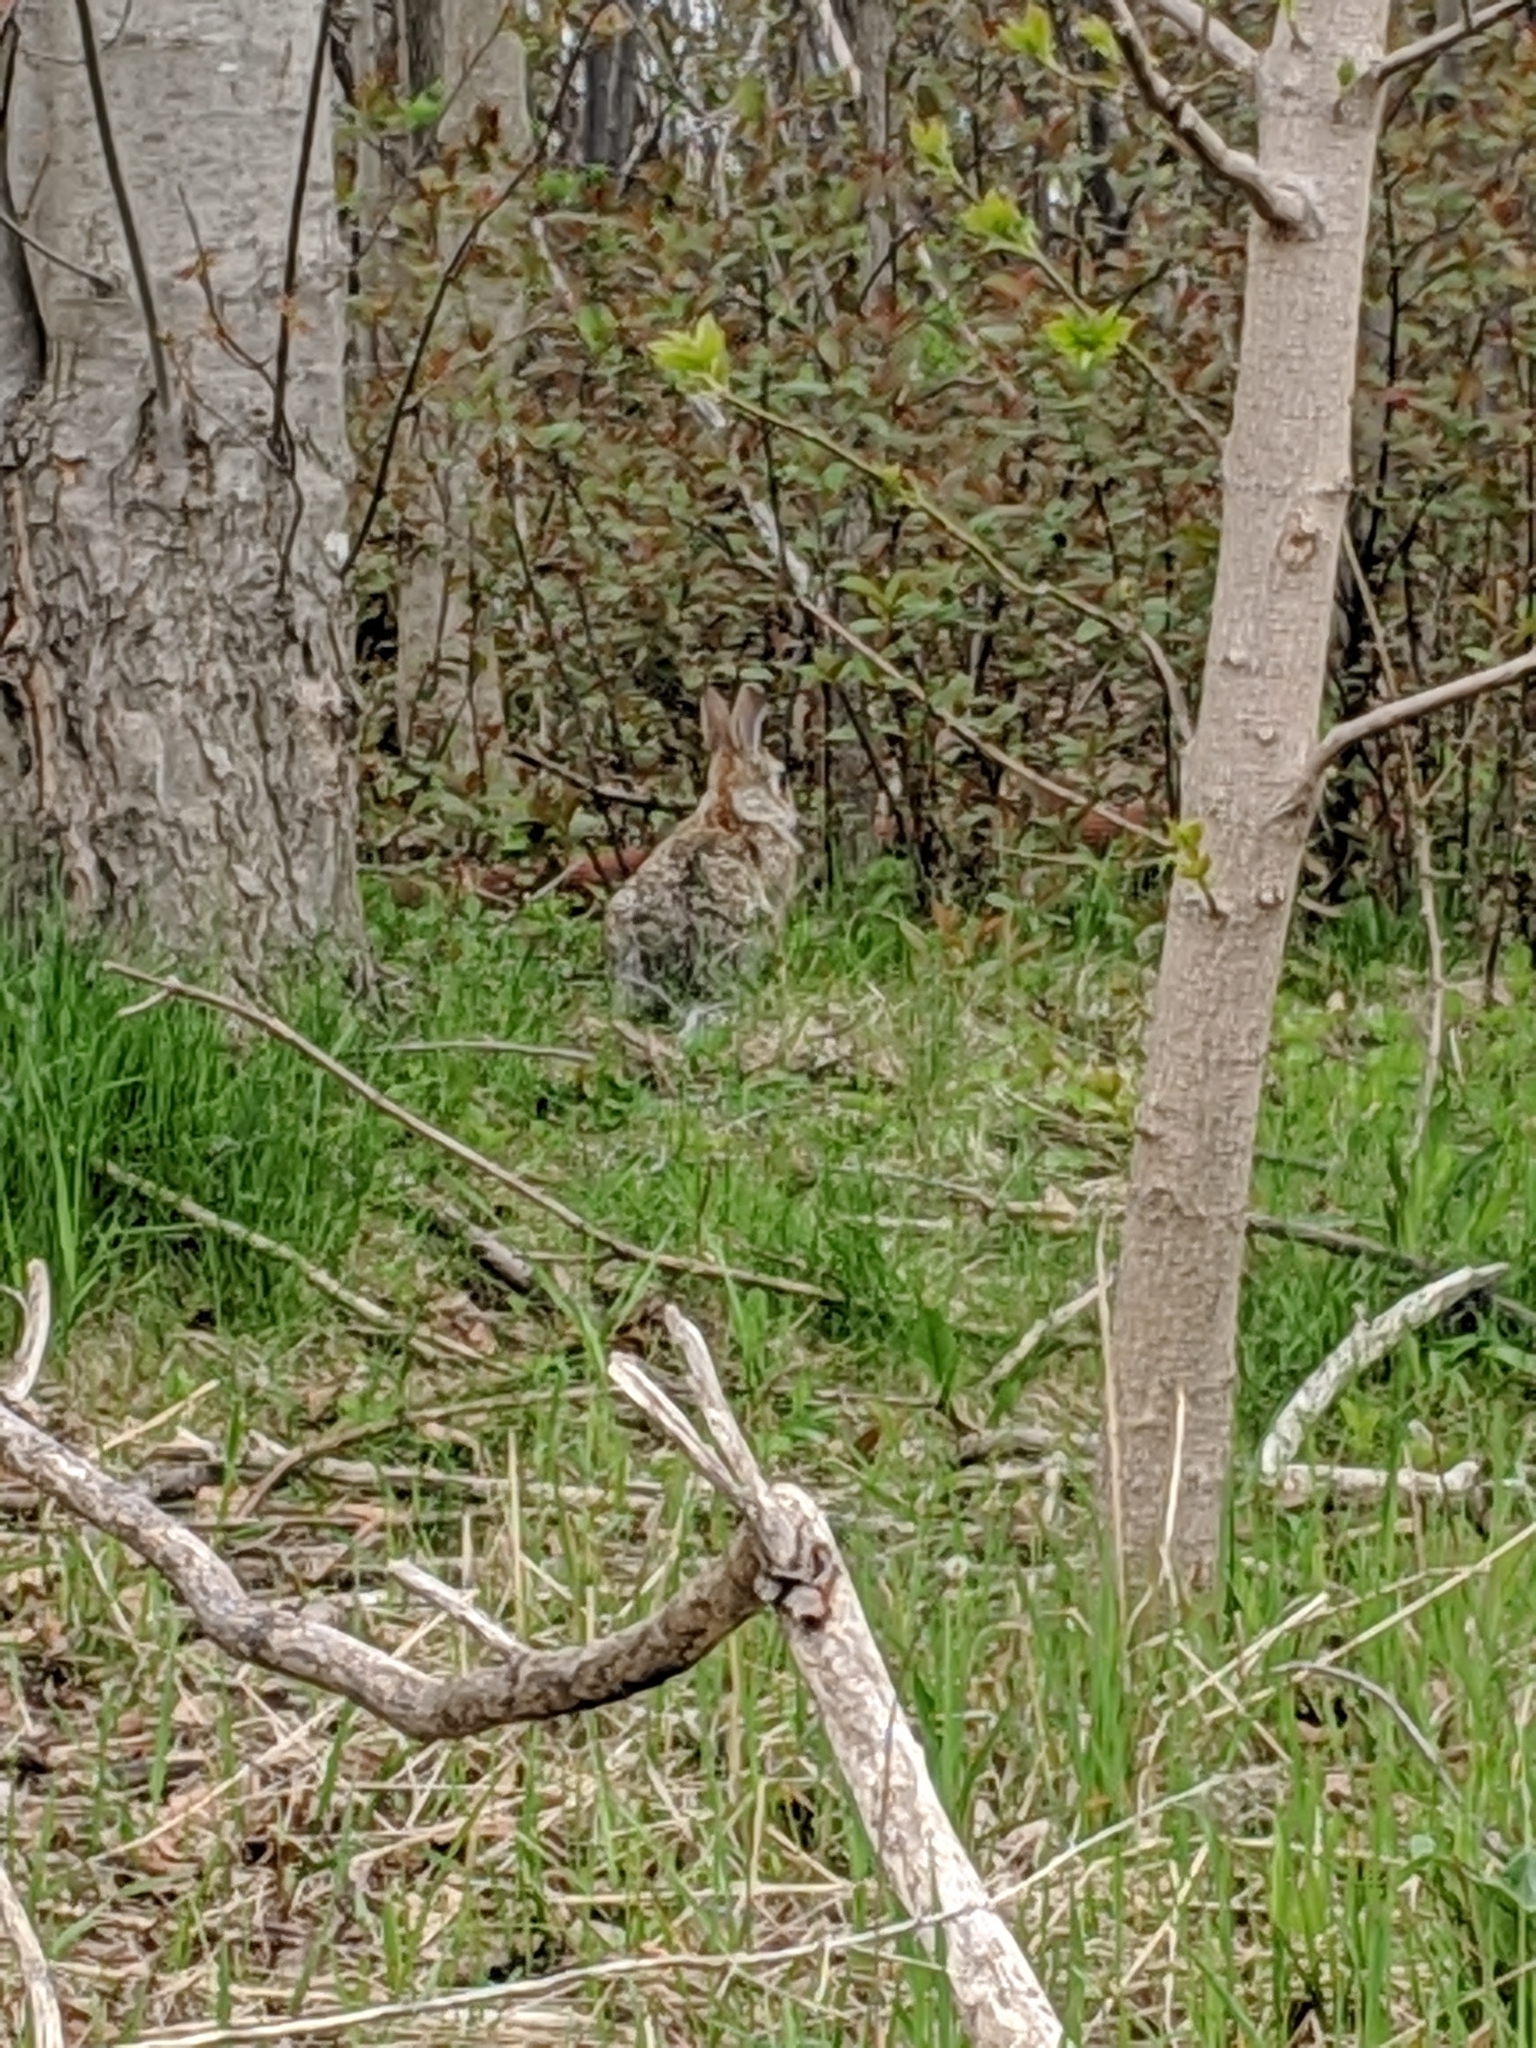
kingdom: Animalia
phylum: Chordata
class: Mammalia
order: Lagomorpha
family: Leporidae
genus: Sylvilagus
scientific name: Sylvilagus floridanus
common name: Eastern cottontail
